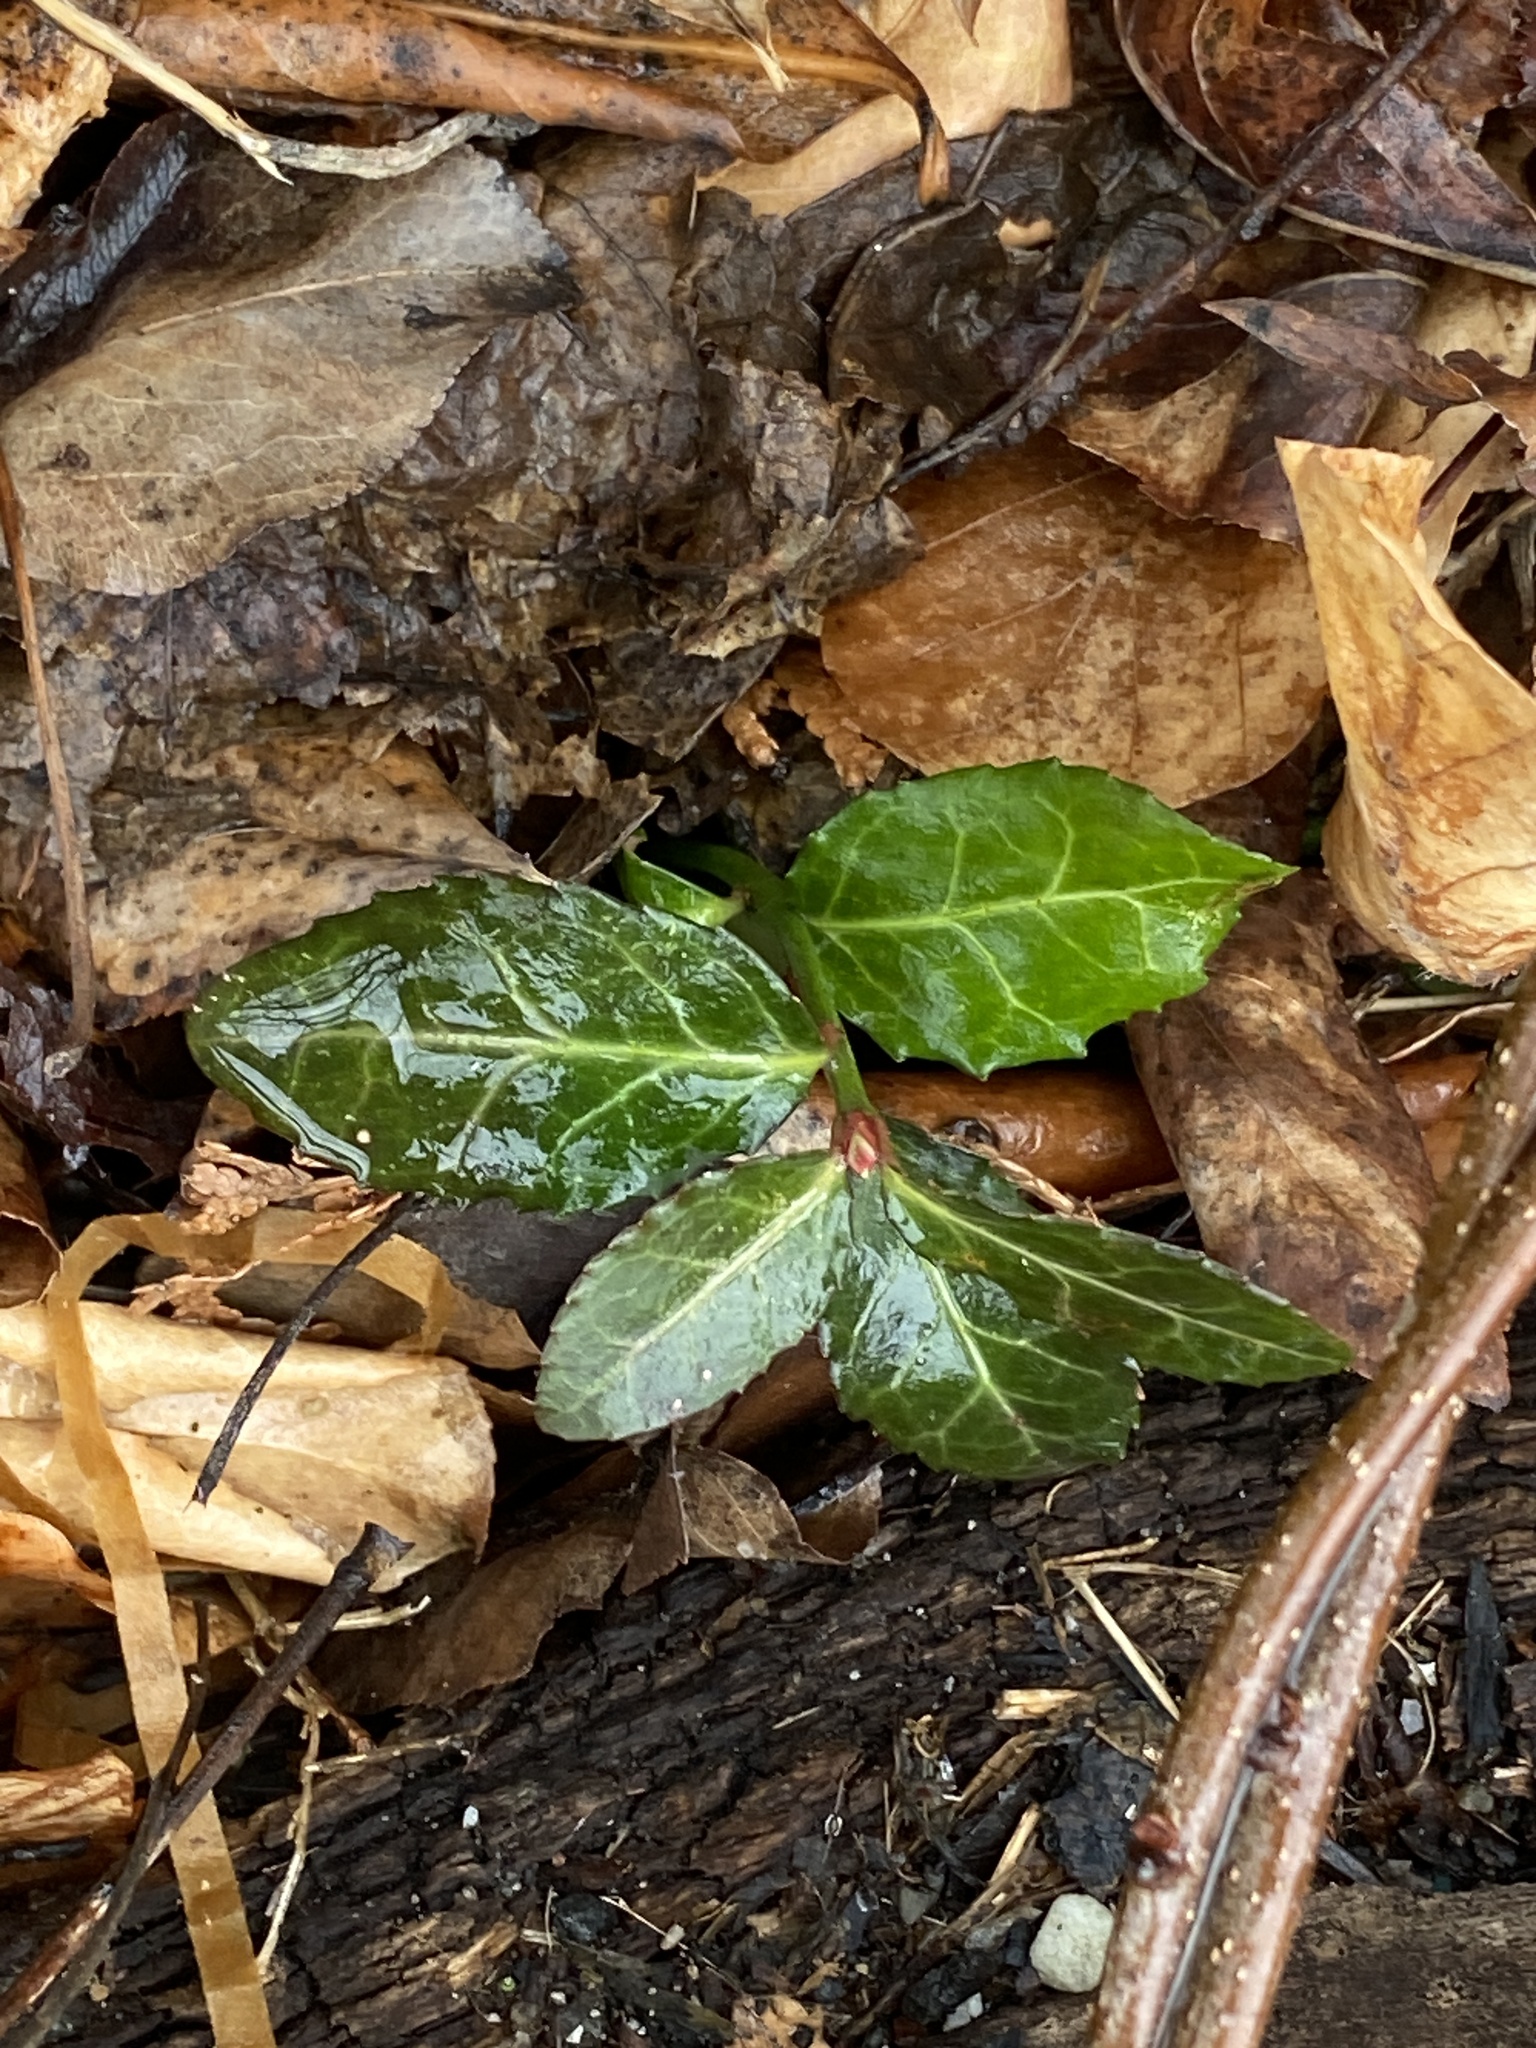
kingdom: Plantae
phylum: Tracheophyta
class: Magnoliopsida
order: Celastrales
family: Celastraceae
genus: Euonymus
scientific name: Euonymus fortunei
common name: Climbing euonymus
